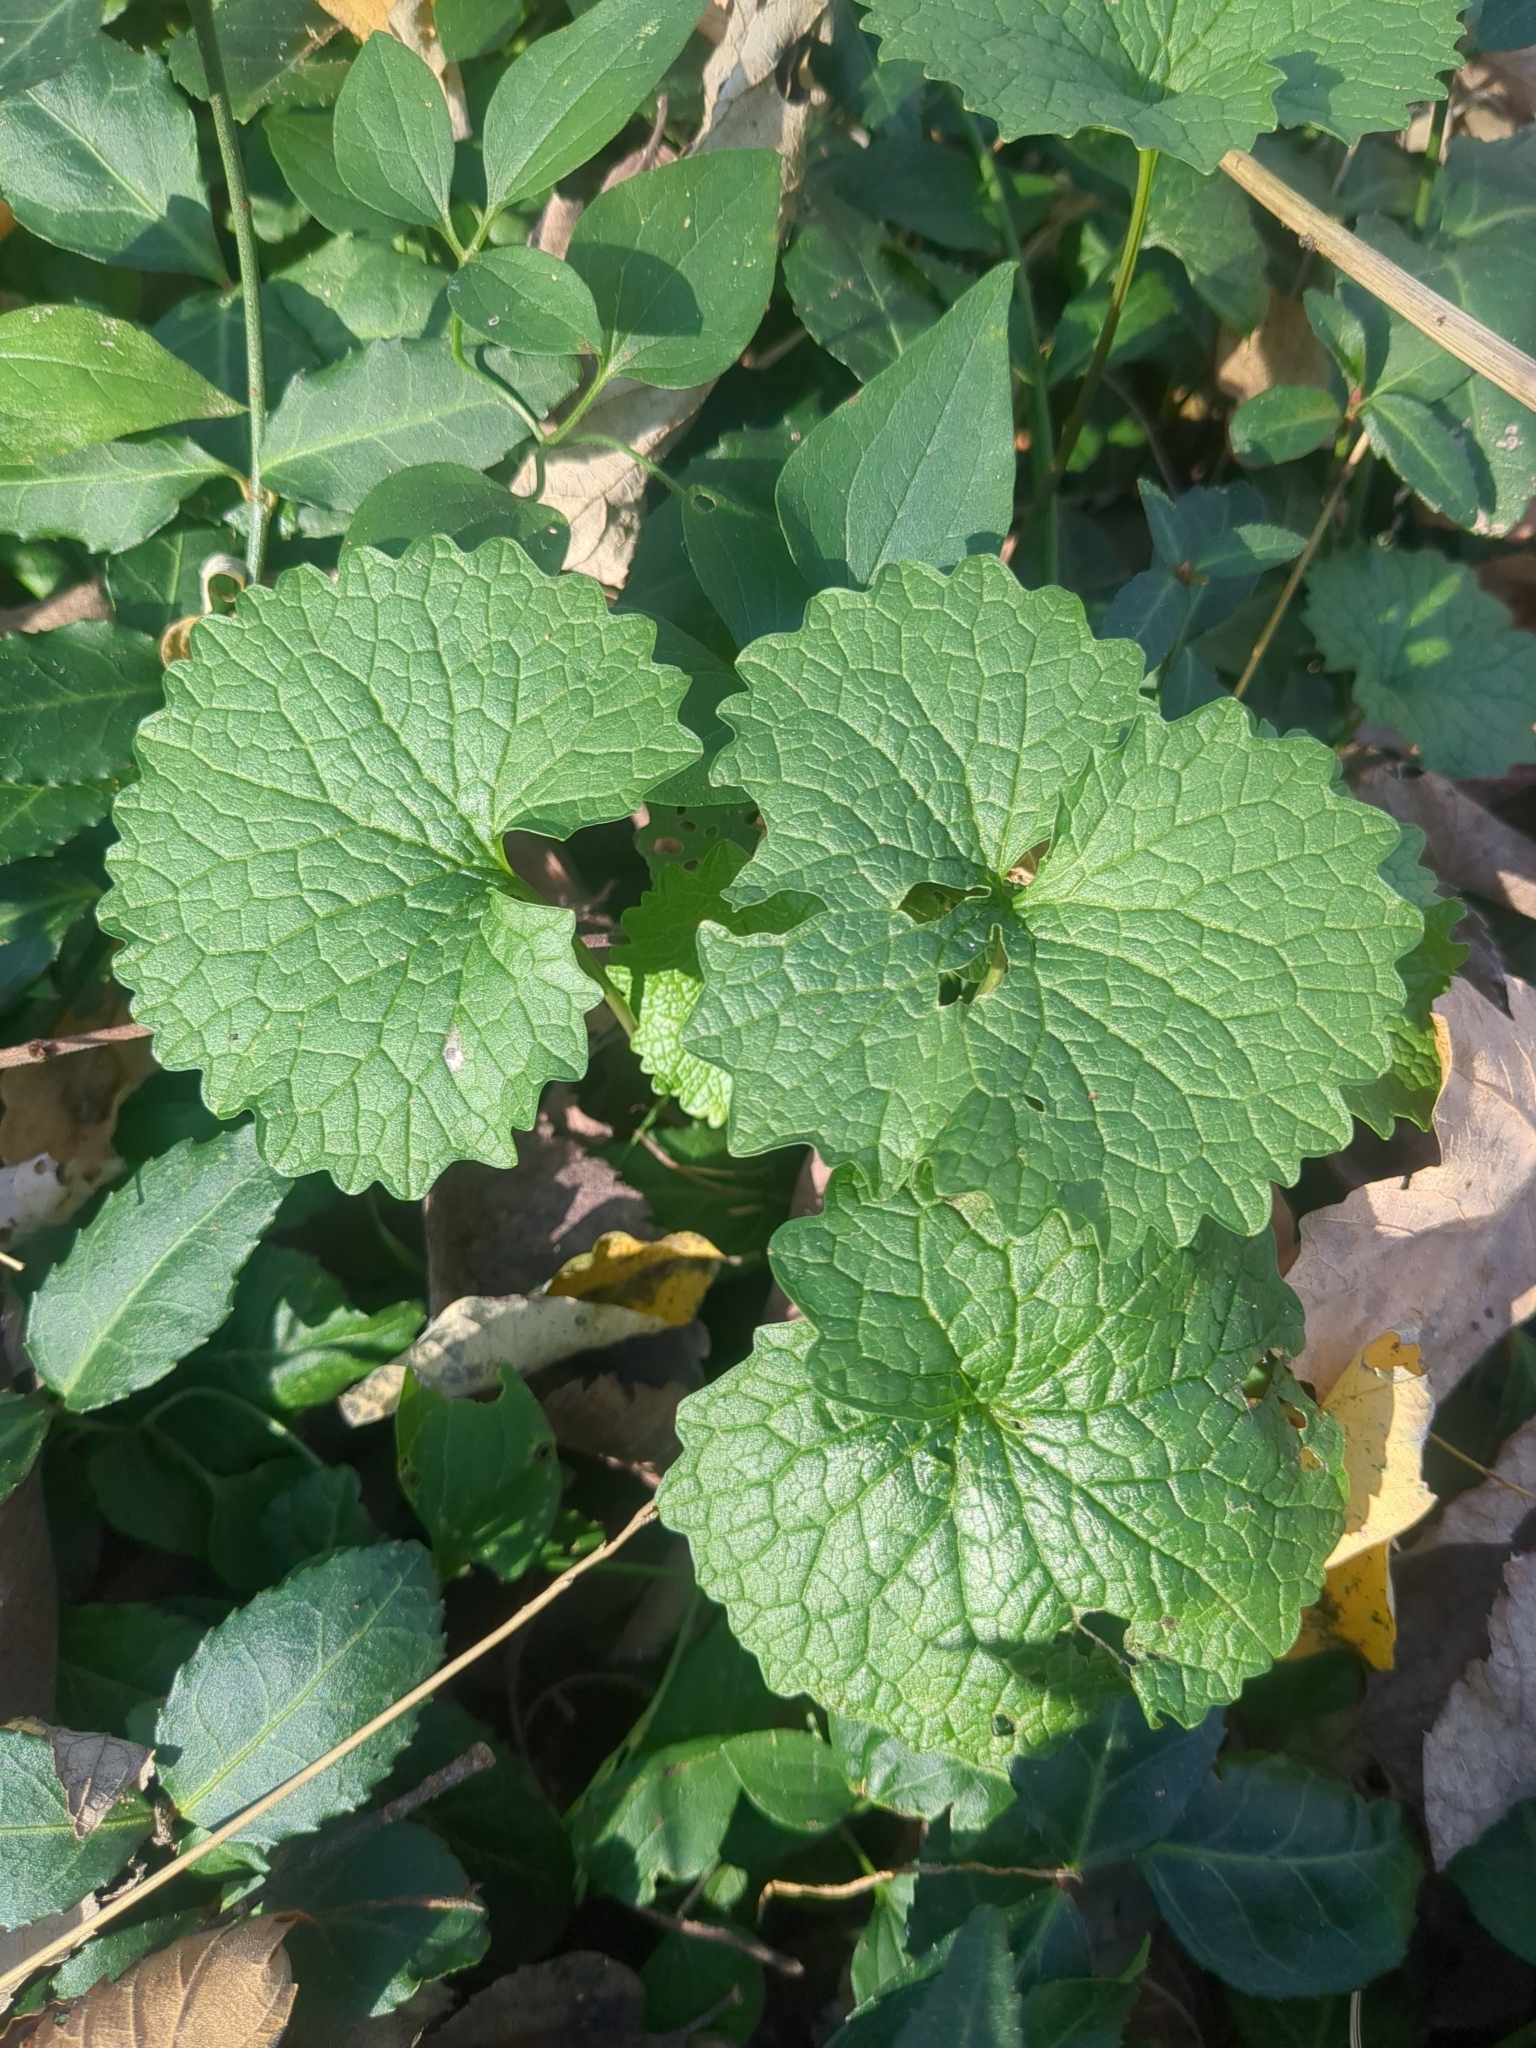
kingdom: Plantae
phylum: Tracheophyta
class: Magnoliopsida
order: Brassicales
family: Brassicaceae
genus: Alliaria
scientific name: Alliaria petiolata
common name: Garlic mustard
